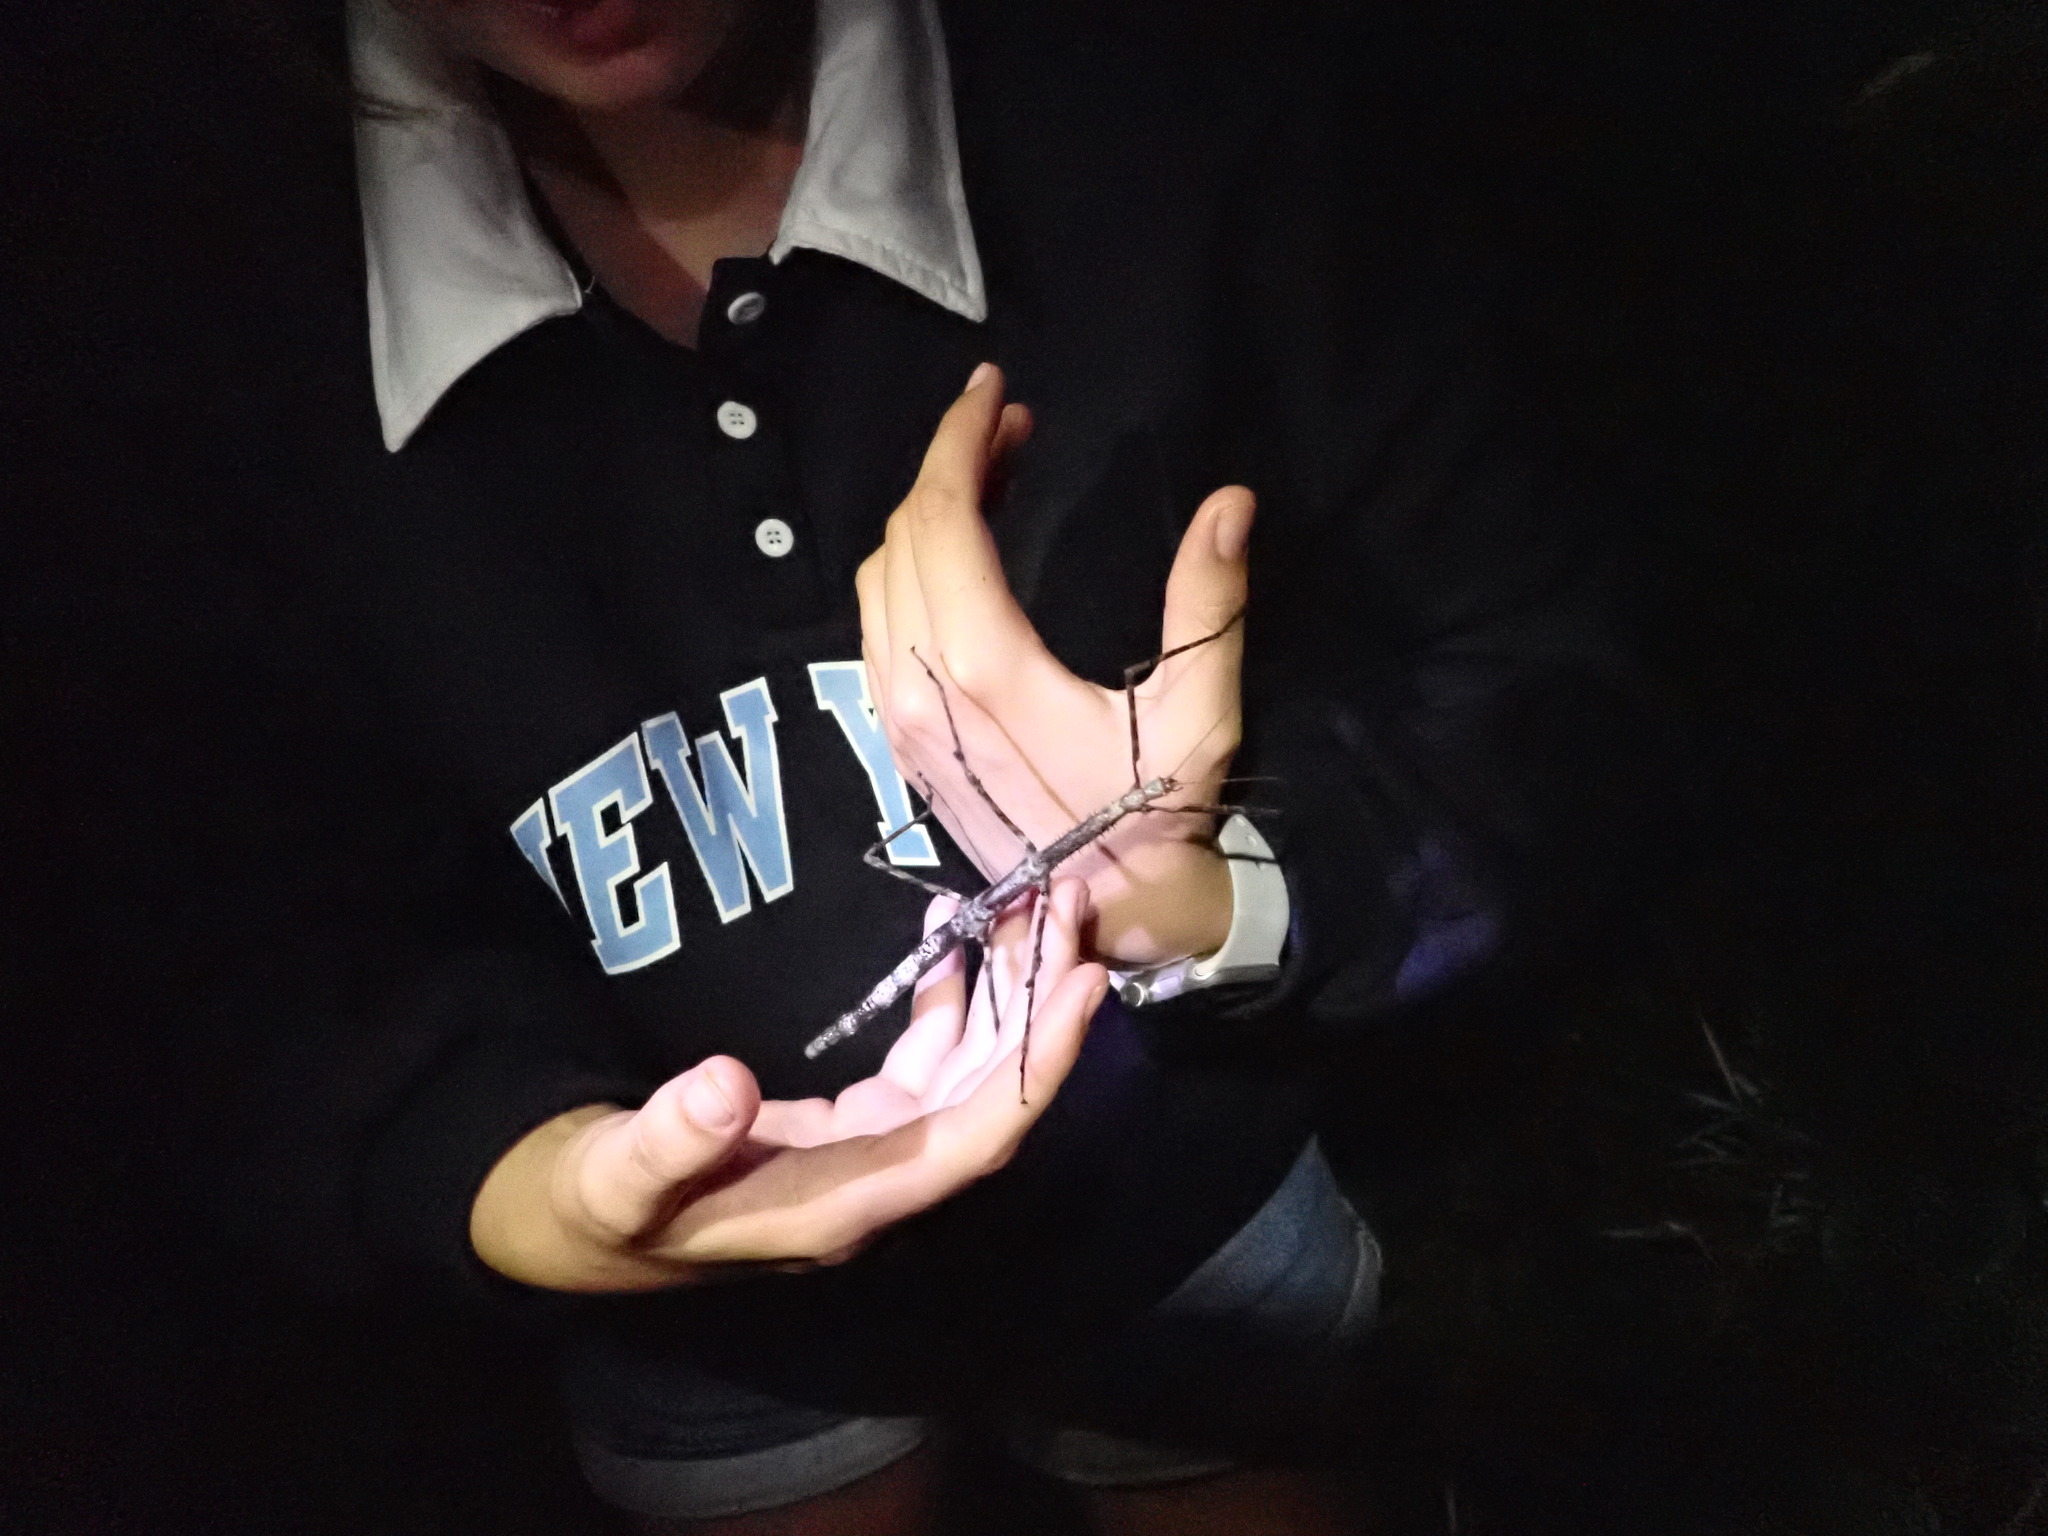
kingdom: Animalia
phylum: Arthropoda
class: Insecta
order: Phasmida
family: Phasmatidae
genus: Argosarchus
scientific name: Argosarchus horridus
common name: Bristly stick insect
